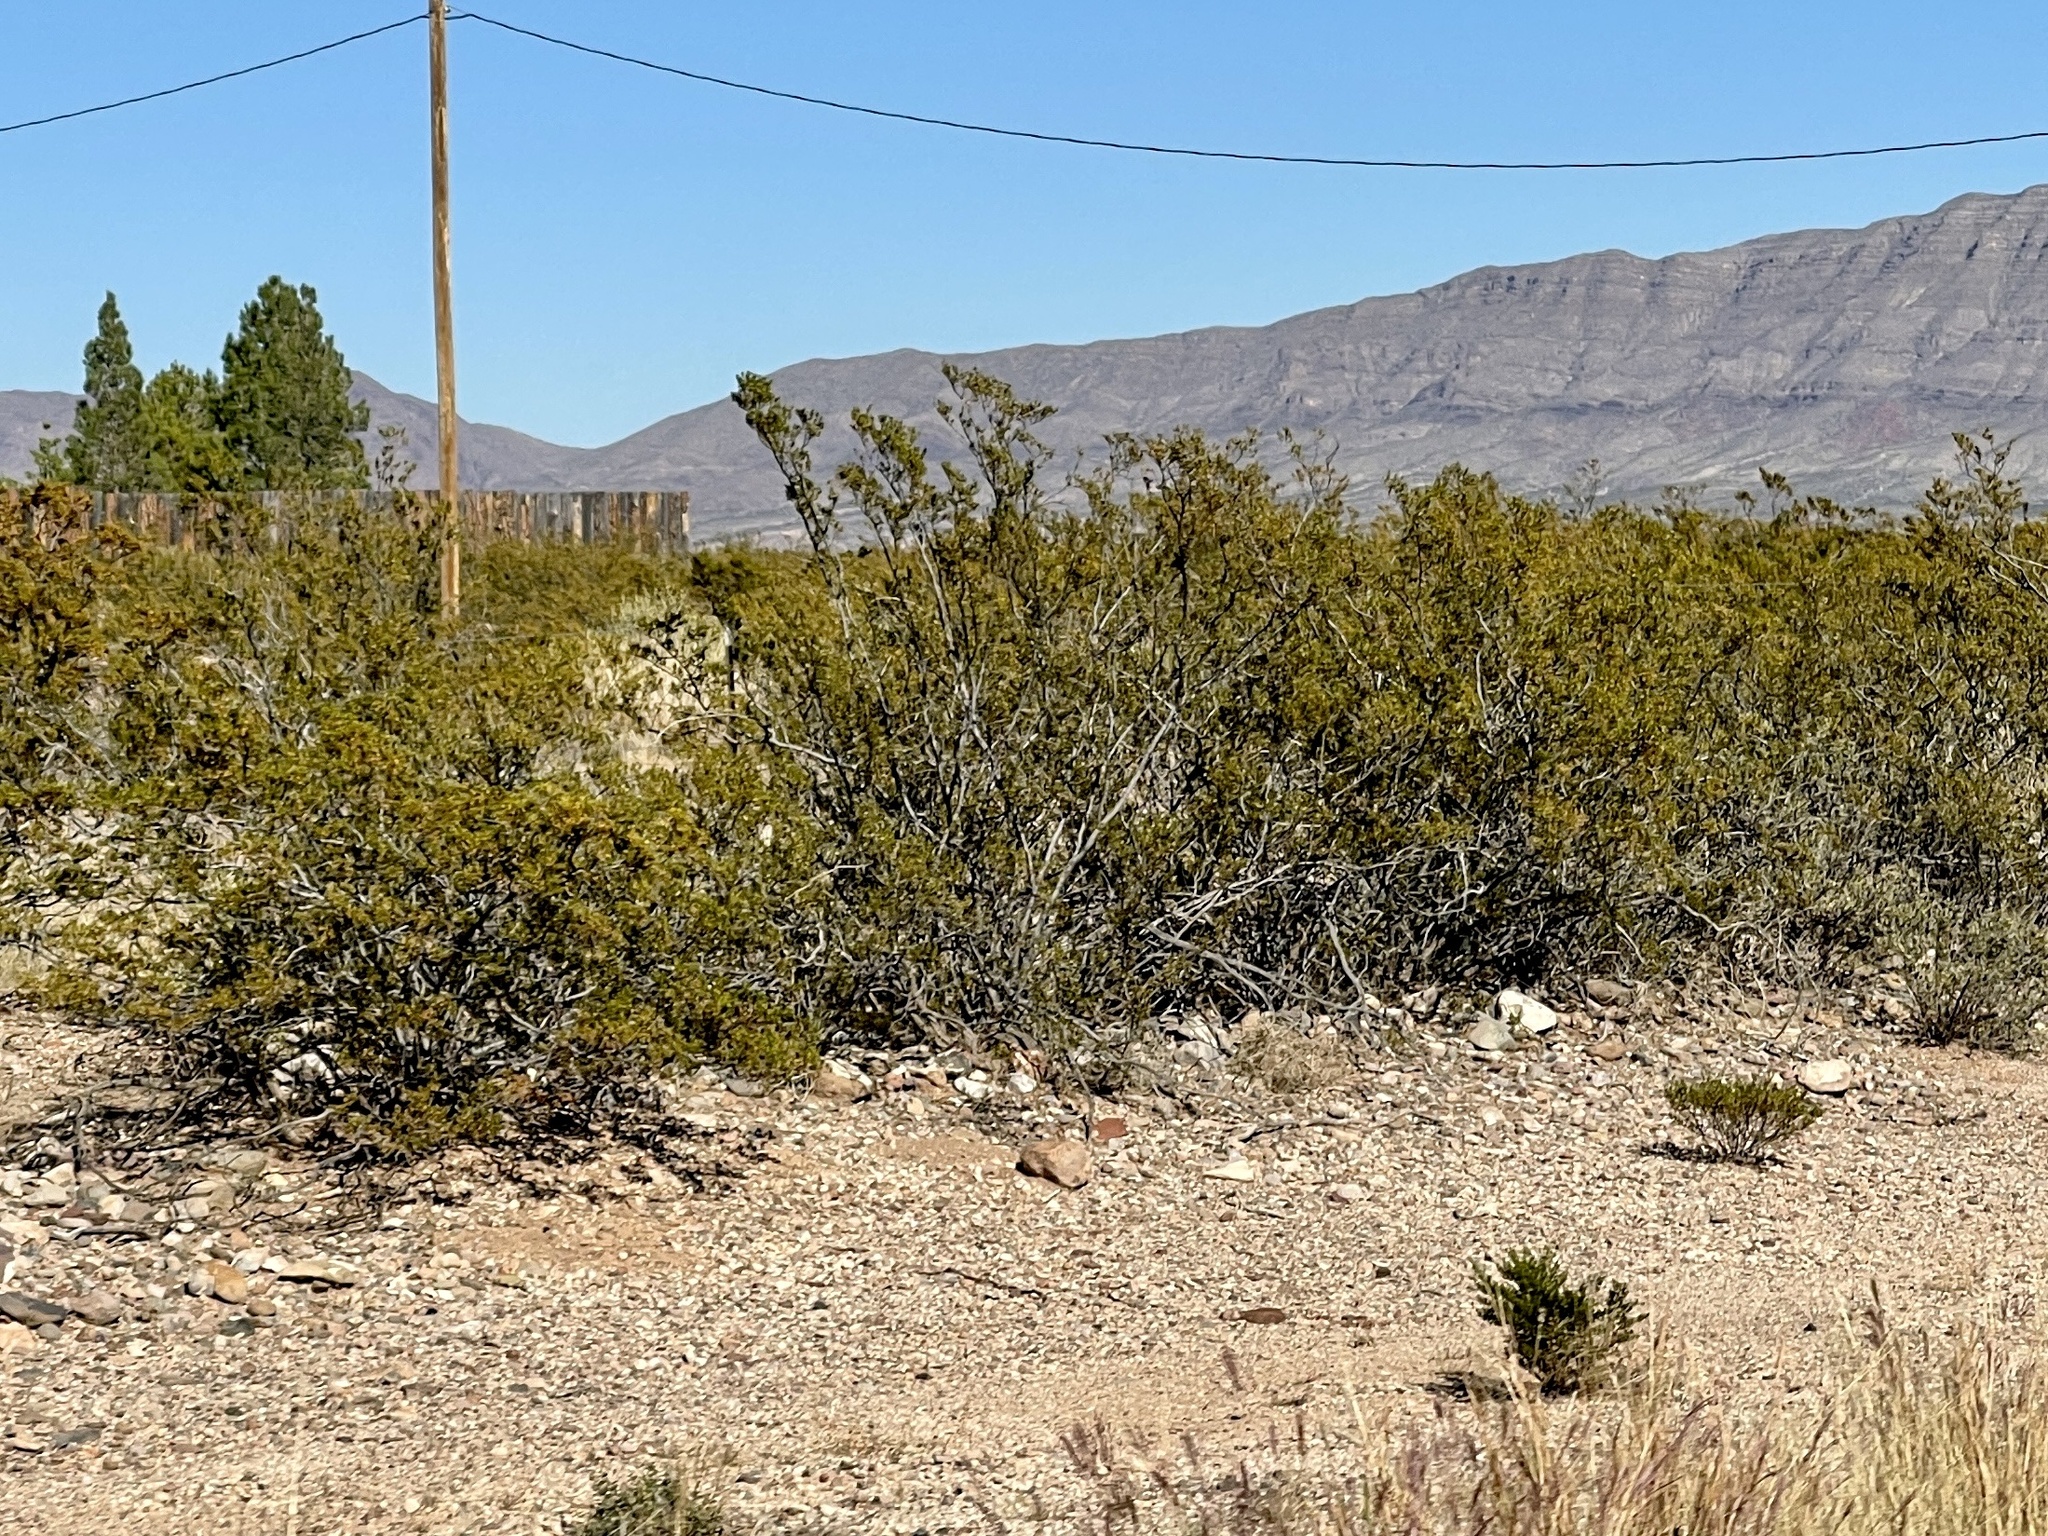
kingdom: Plantae
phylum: Tracheophyta
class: Magnoliopsida
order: Zygophyllales
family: Zygophyllaceae
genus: Larrea
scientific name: Larrea tridentata
